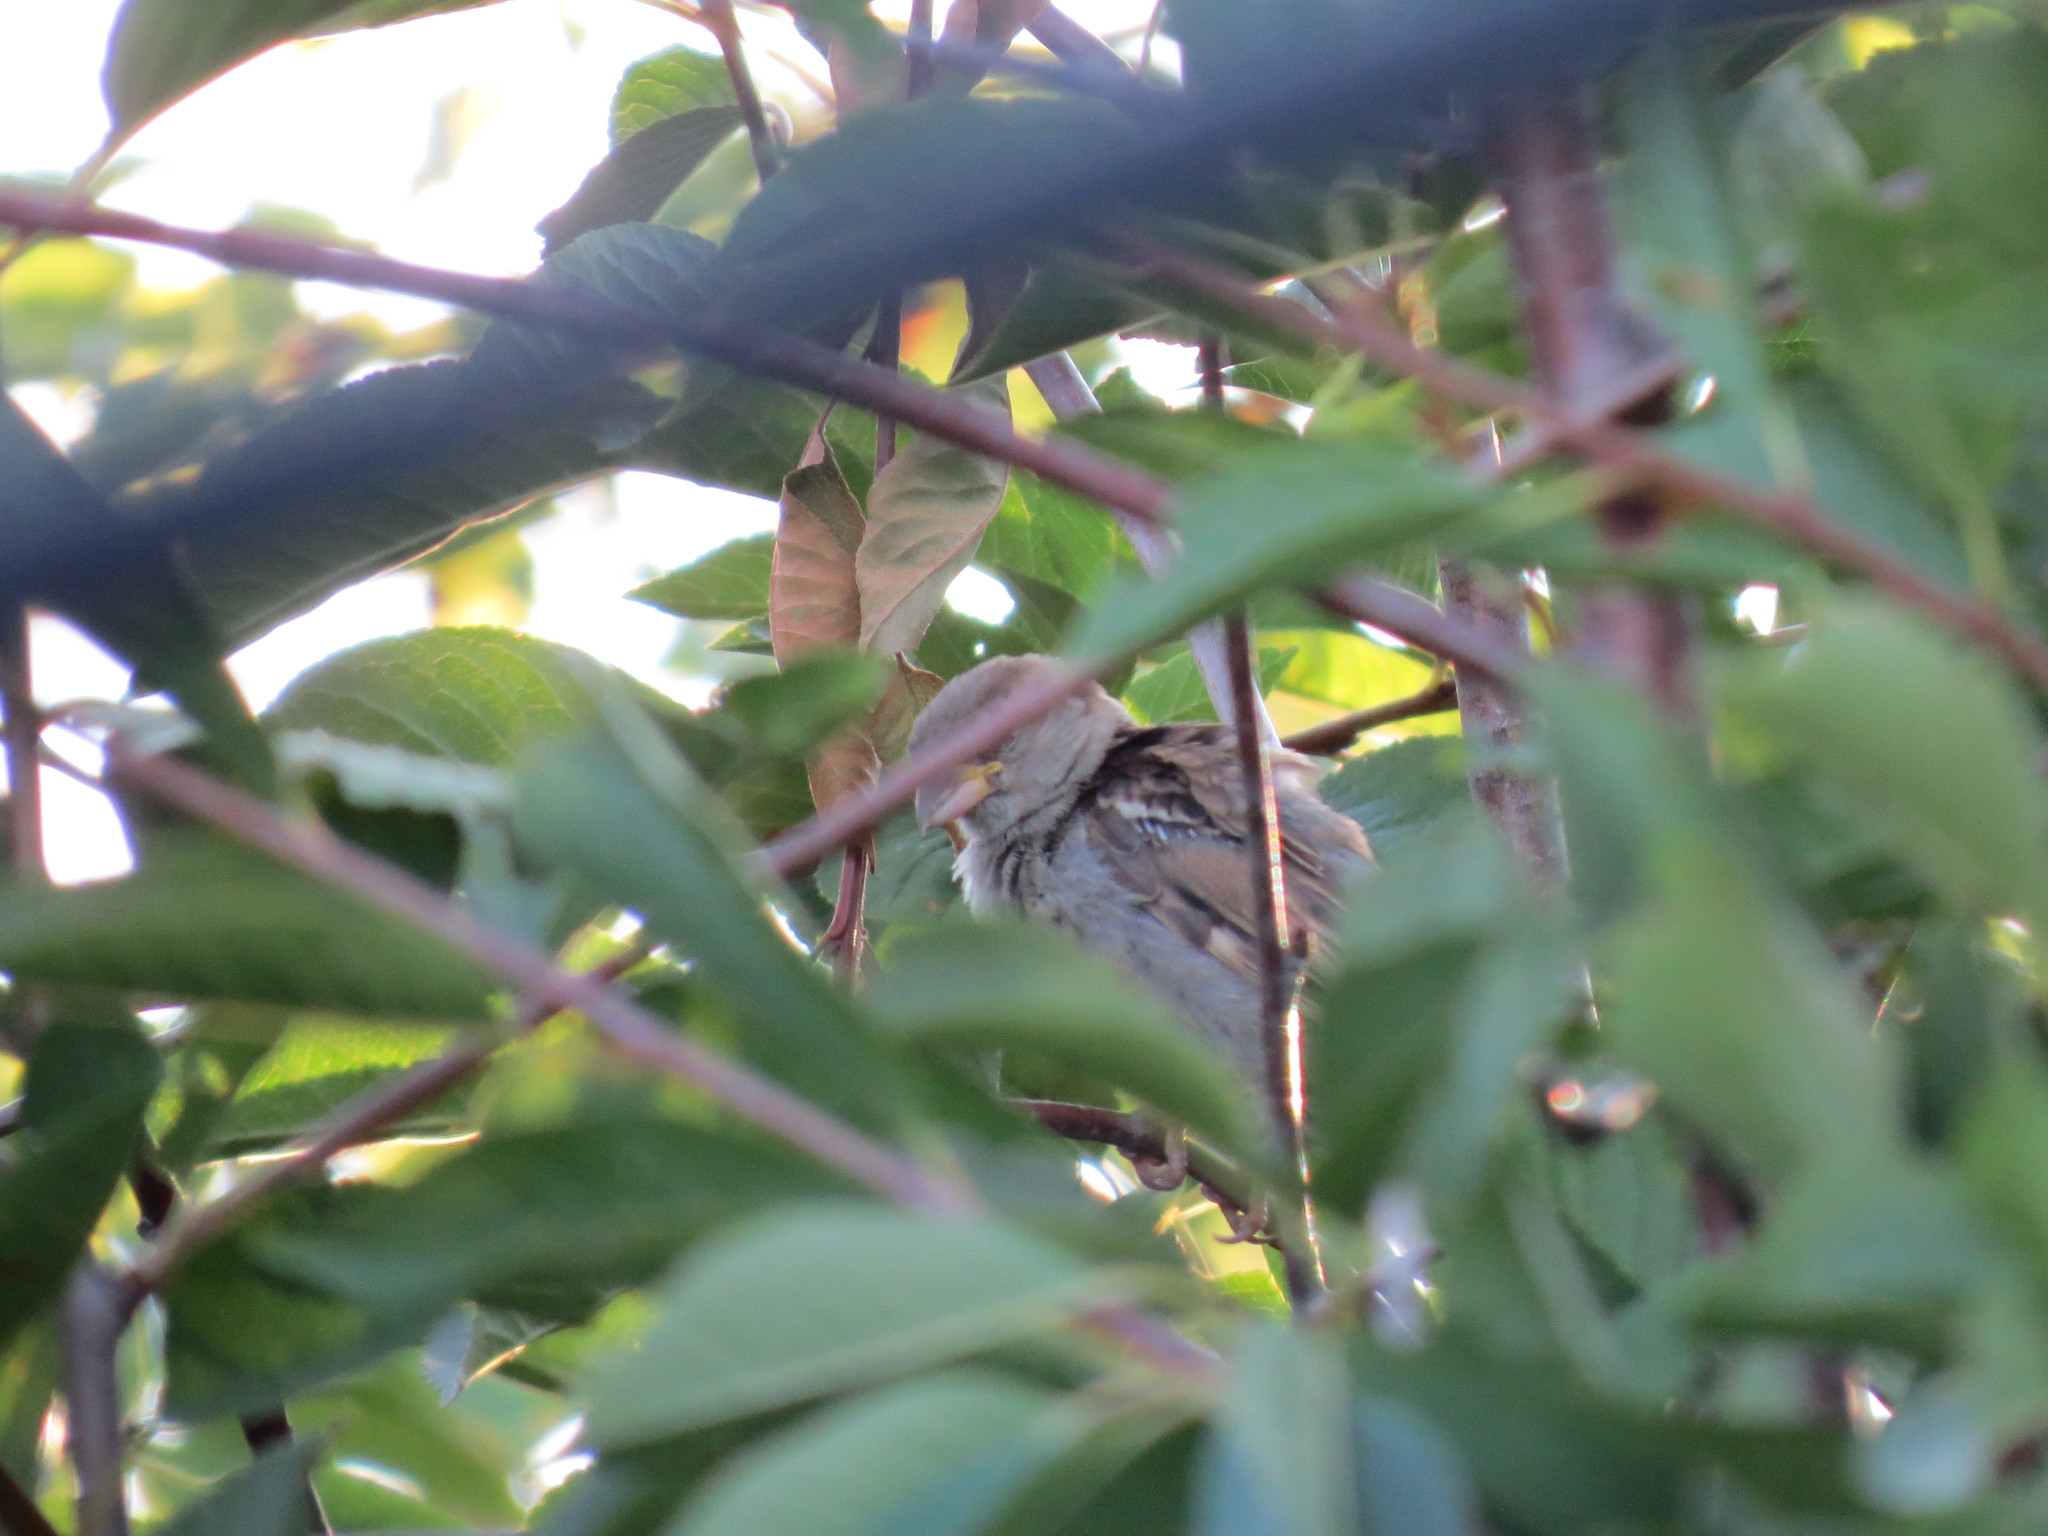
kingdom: Animalia
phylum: Chordata
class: Aves
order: Passeriformes
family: Passeridae
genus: Passer
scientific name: Passer domesticus
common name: House sparrow
